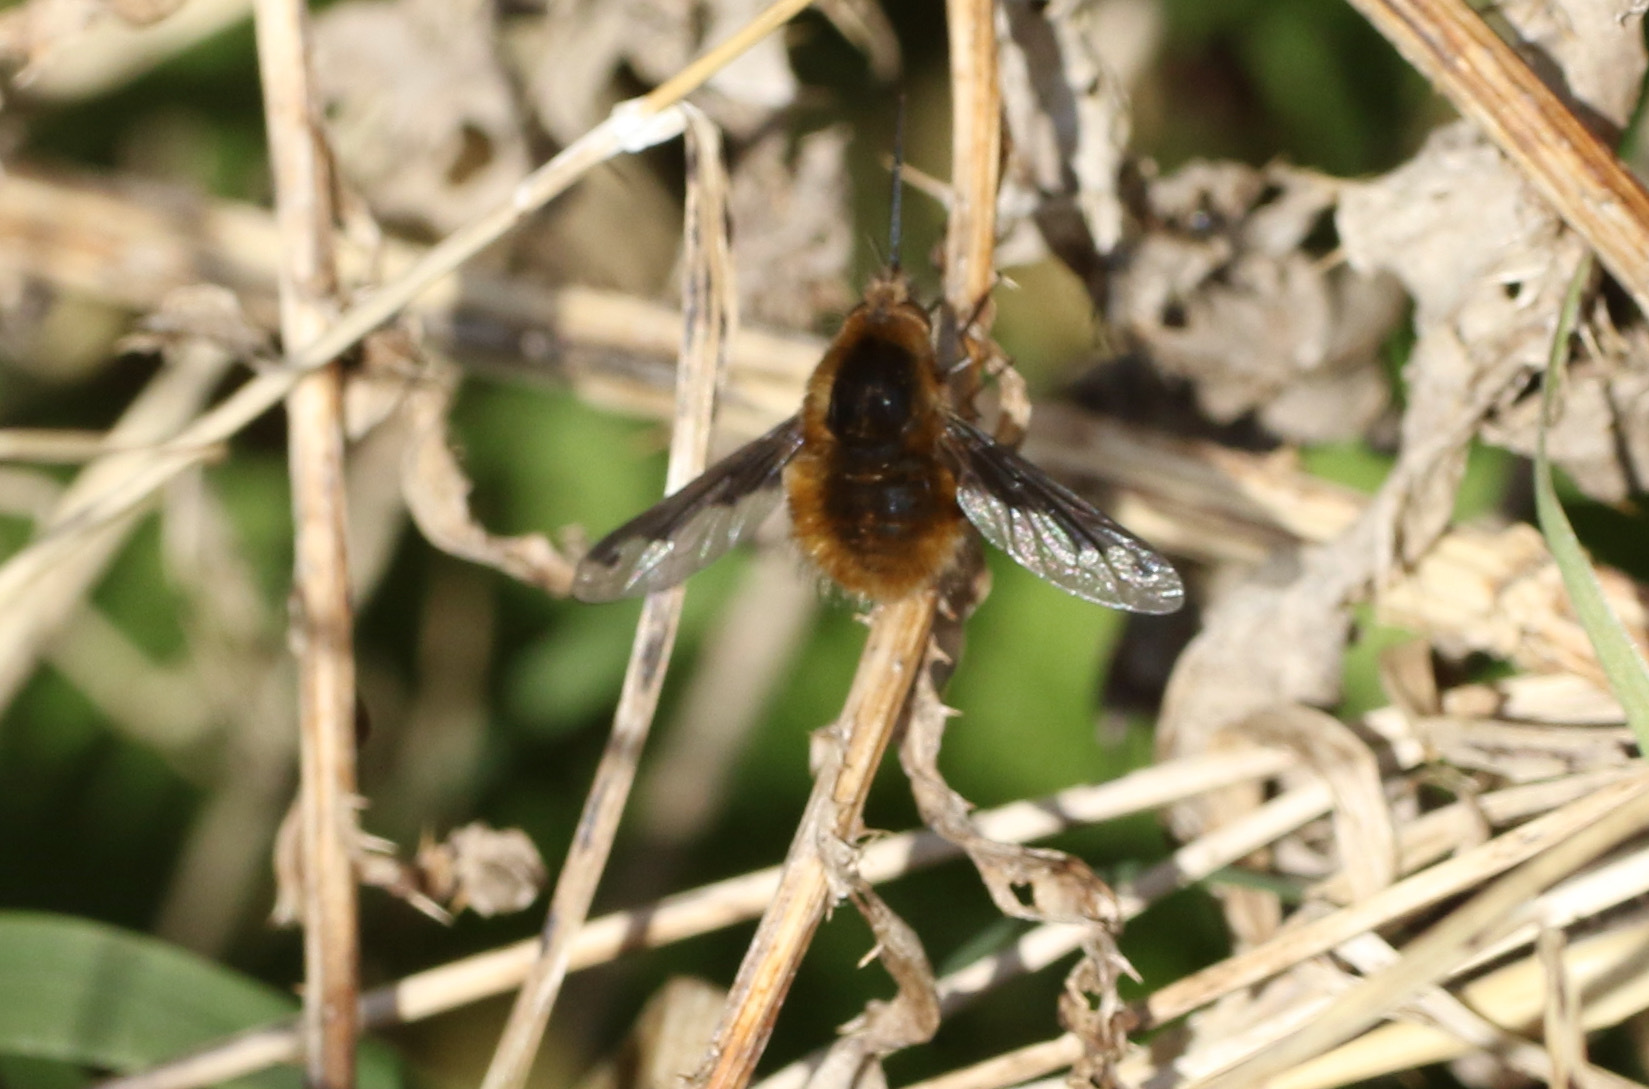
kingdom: Animalia
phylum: Arthropoda
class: Insecta
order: Diptera
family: Bombyliidae
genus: Bombylius
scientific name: Bombylius major
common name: Bee fly
